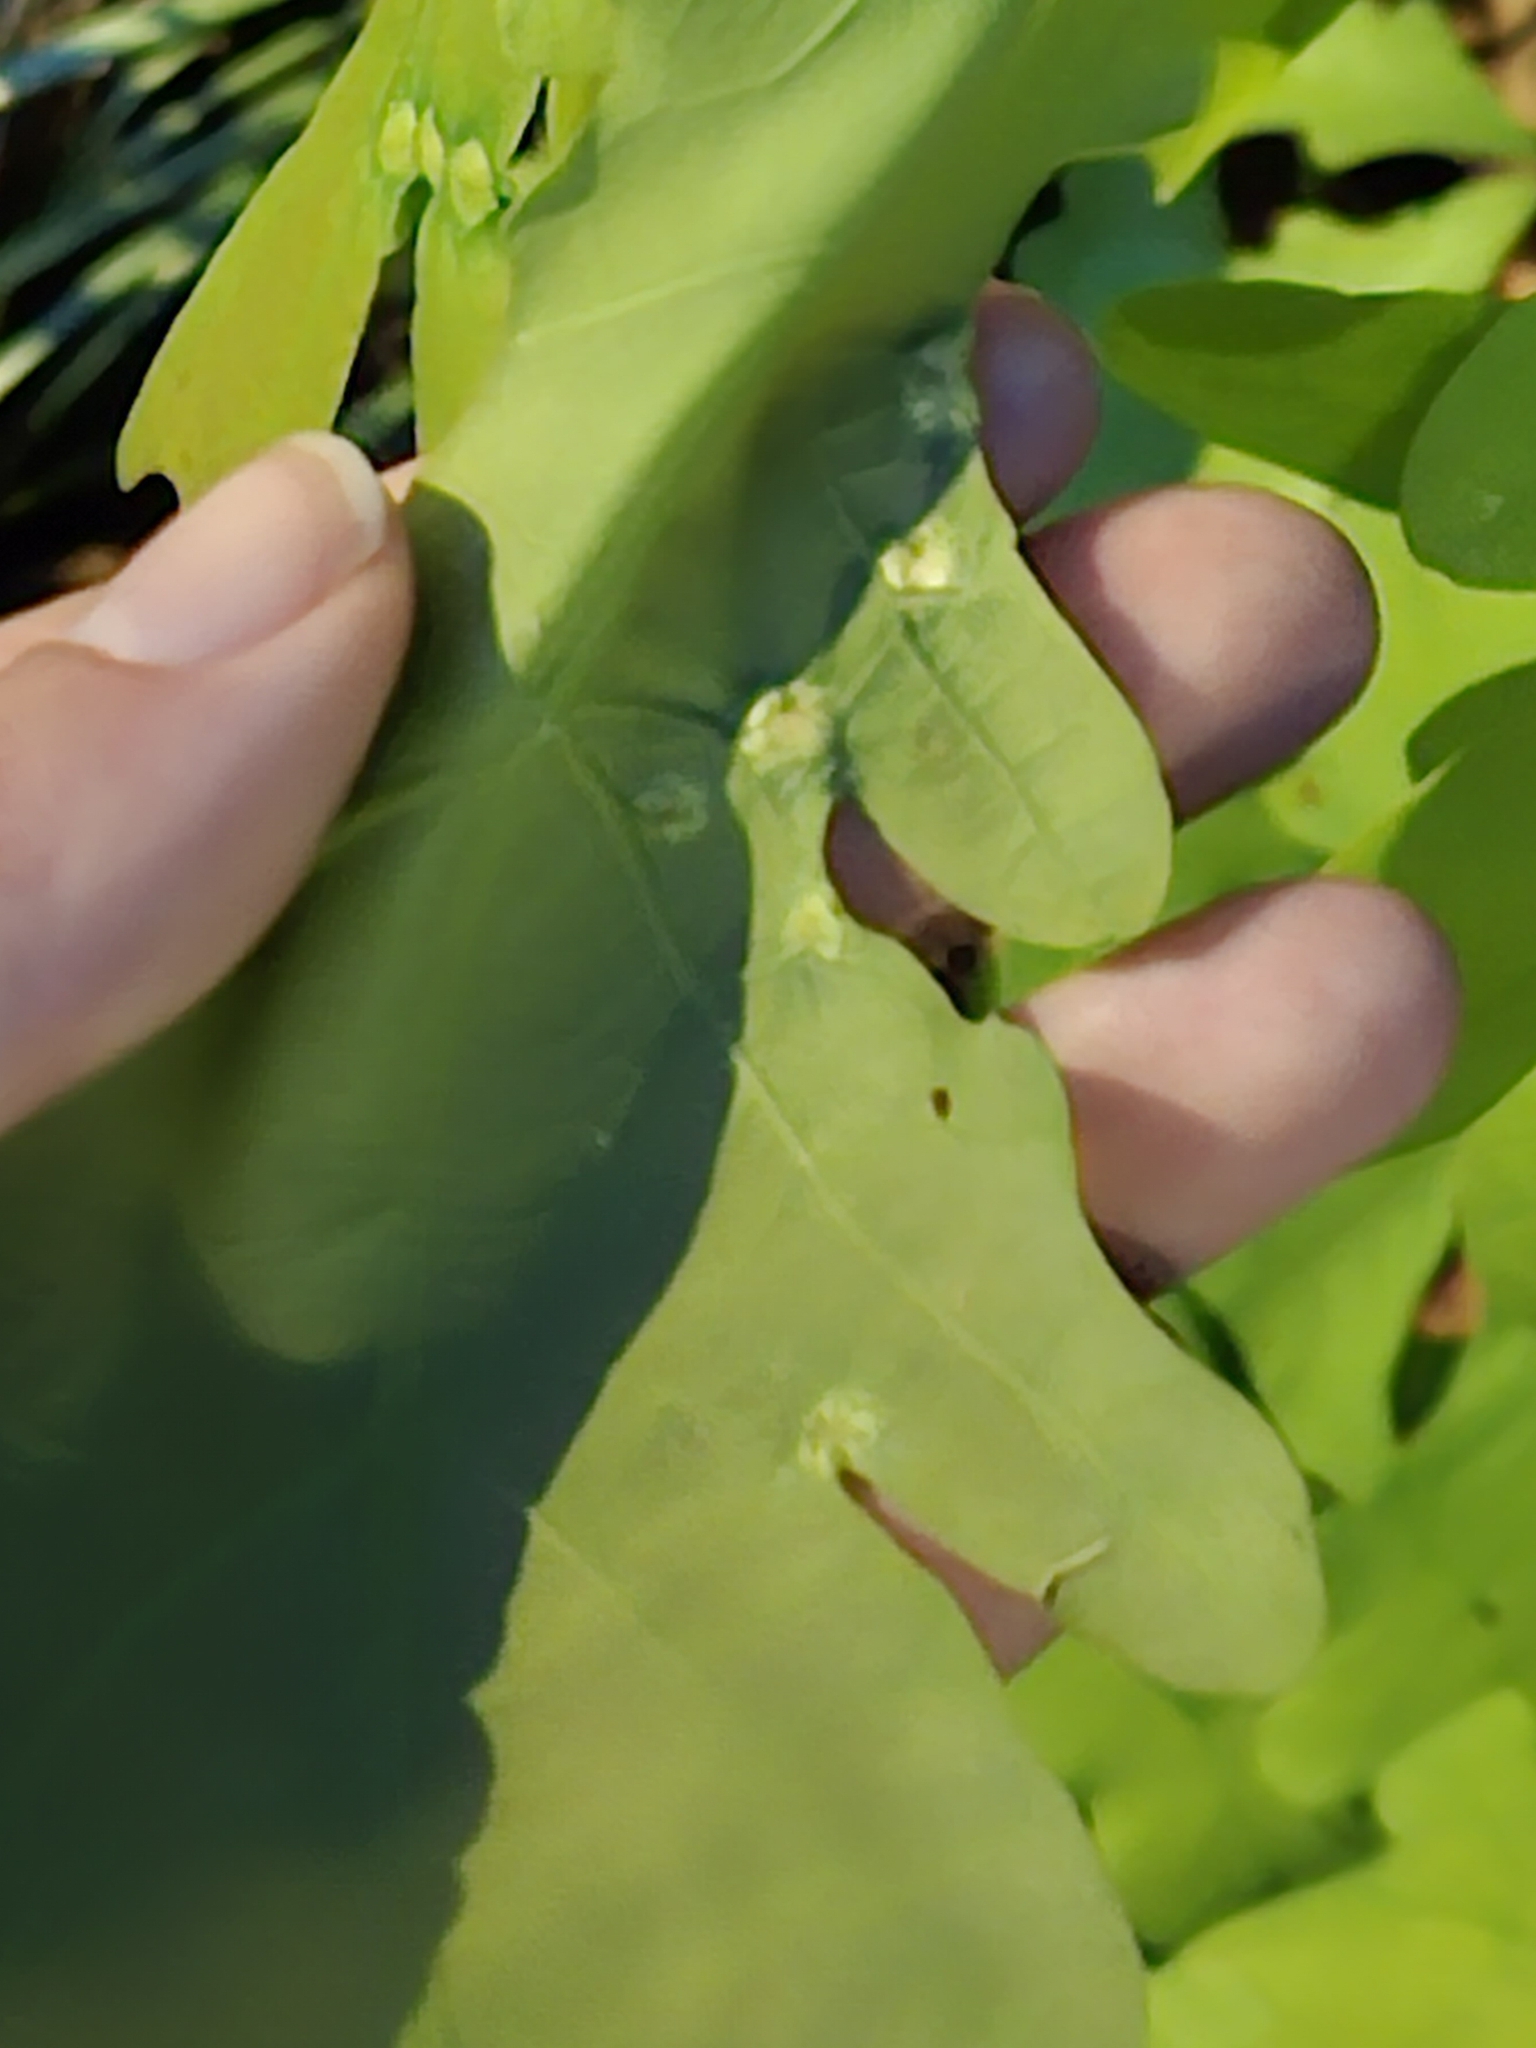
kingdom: Animalia
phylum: Arthropoda
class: Insecta
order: Hymenoptera
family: Cynipidae
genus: Callirhytis
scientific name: Callirhytis
